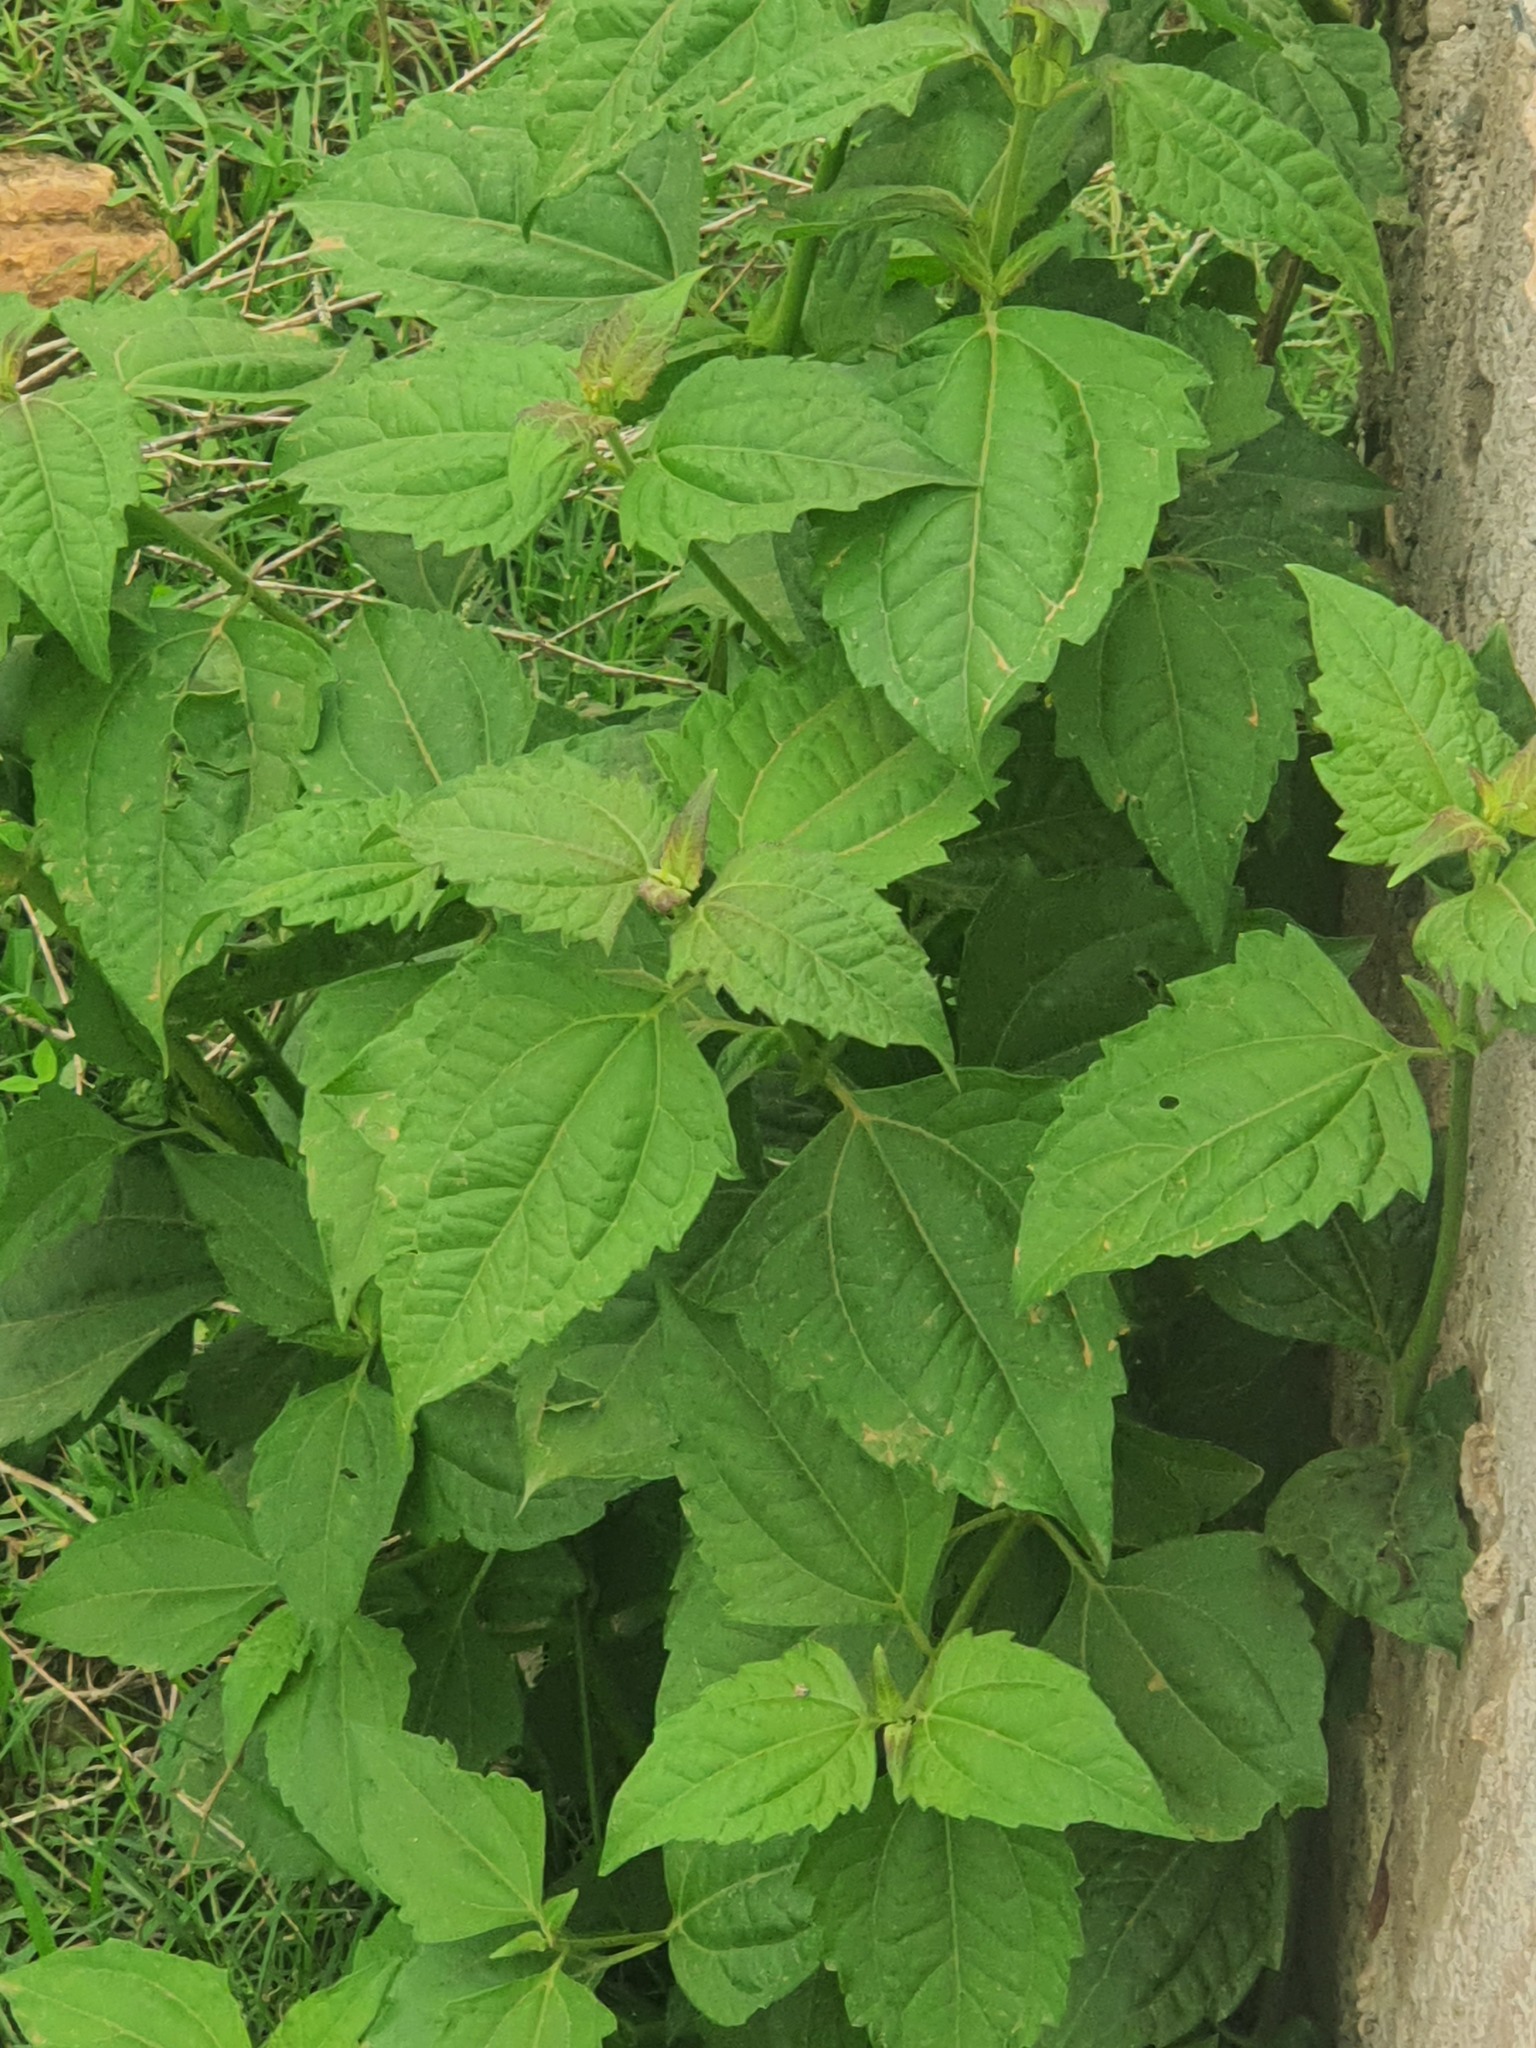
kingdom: Plantae
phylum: Tracheophyta
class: Magnoliopsida
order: Asterales
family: Asteraceae
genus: Chromolaena
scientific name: Chromolaena odorata
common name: Siamweed
